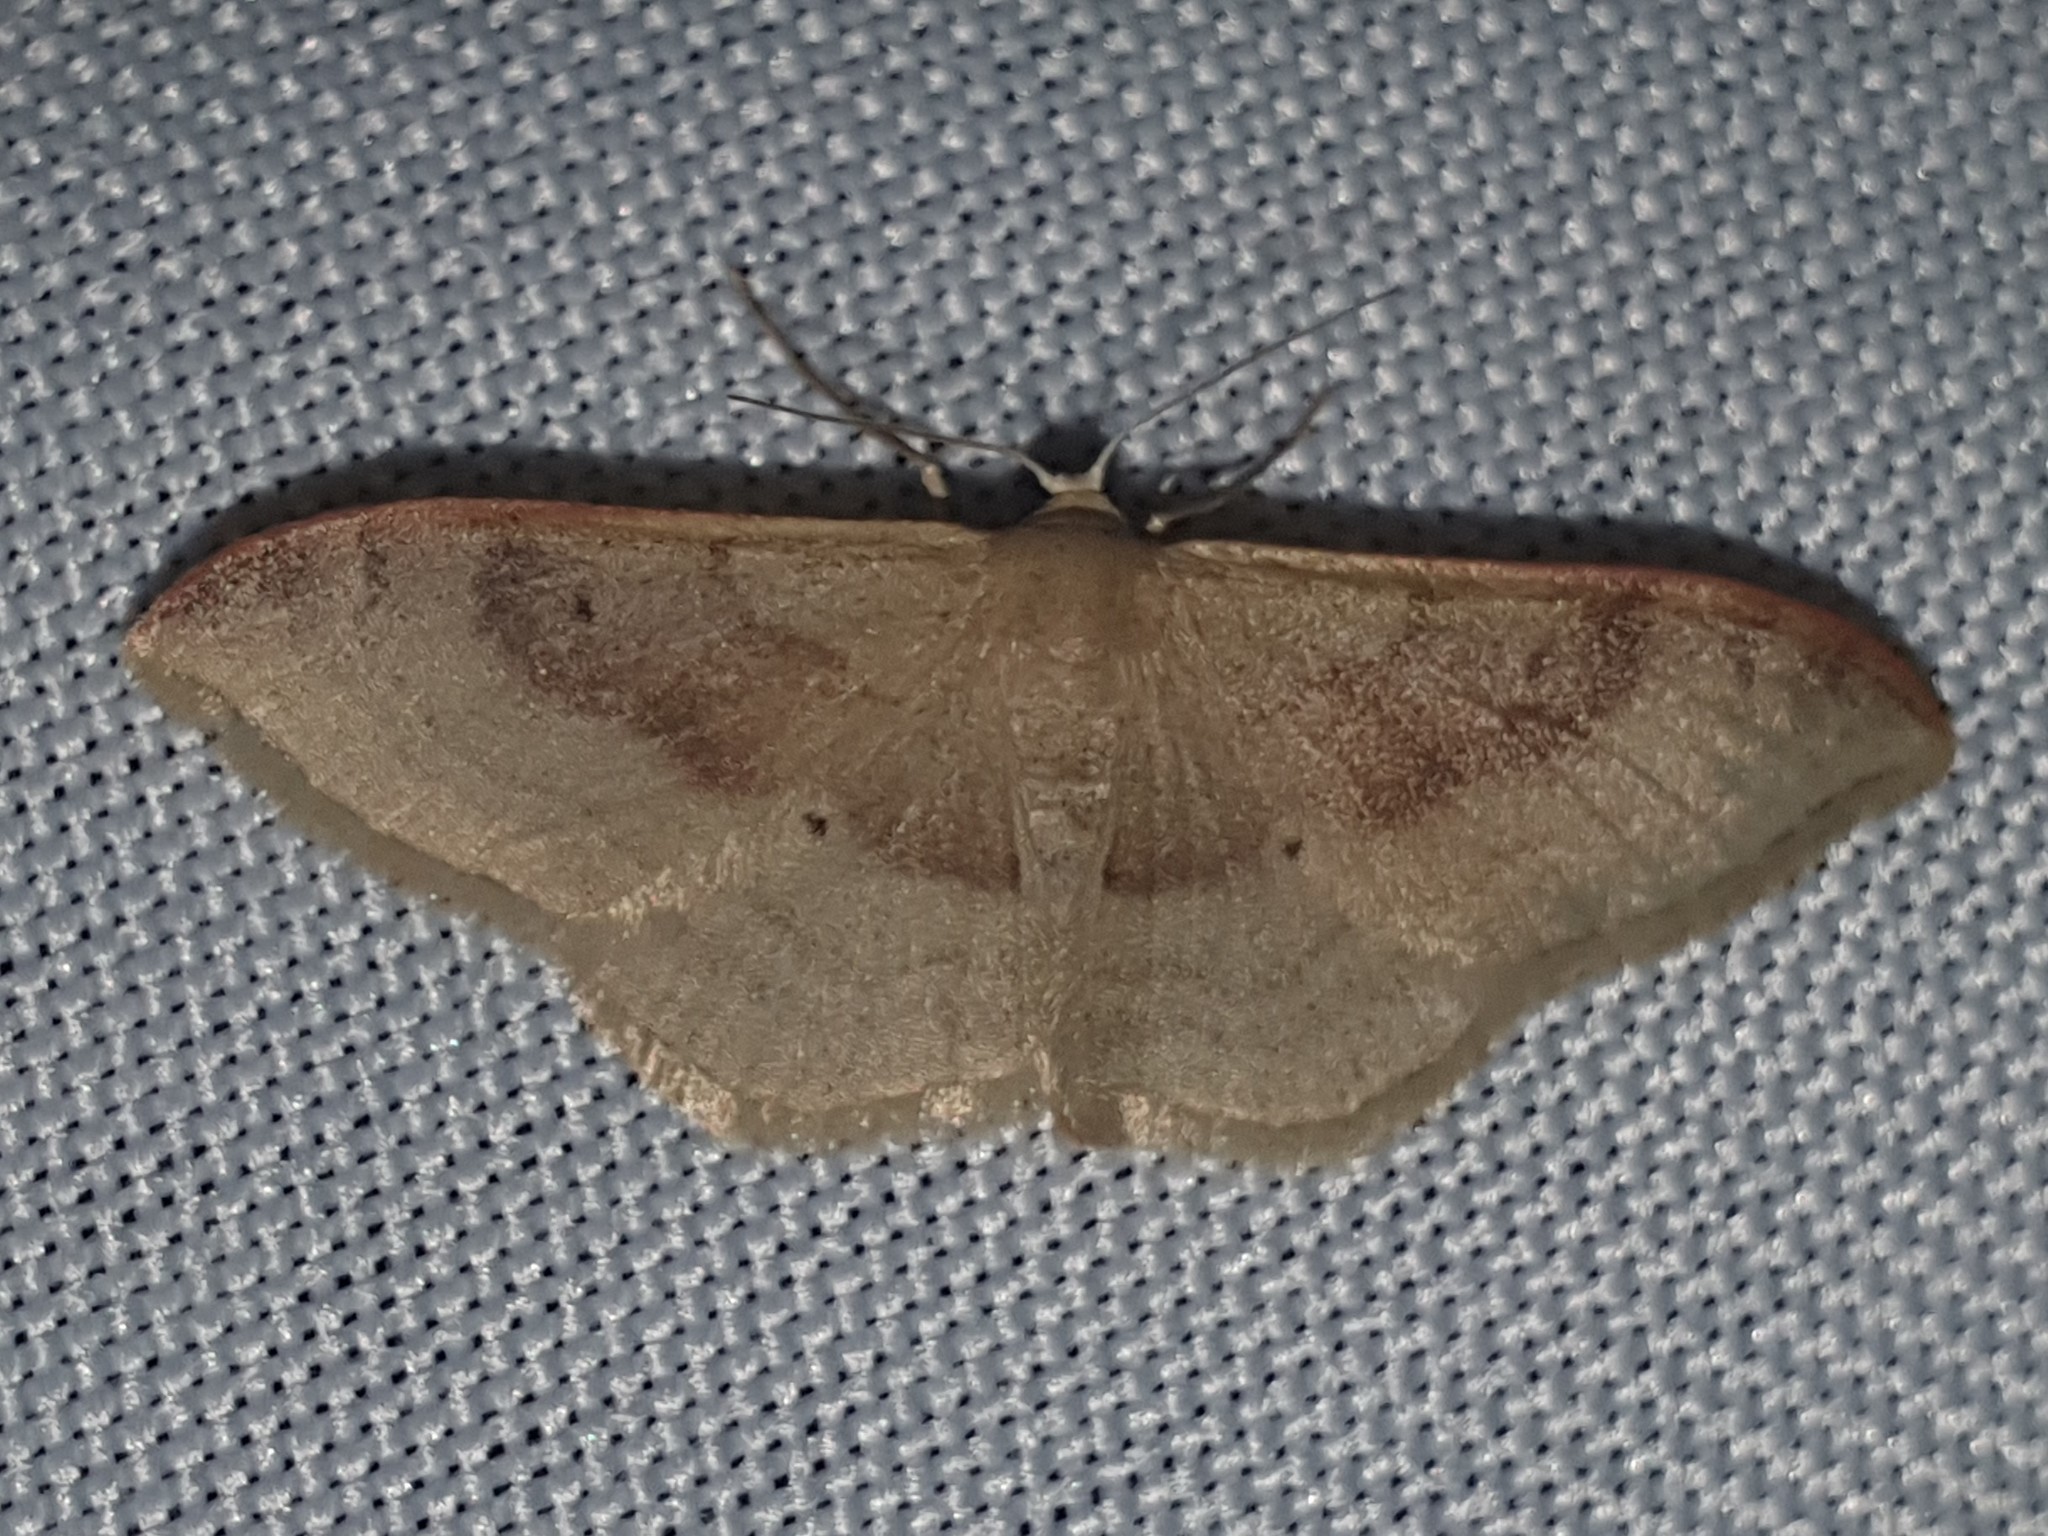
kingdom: Animalia
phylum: Arthropoda
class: Insecta
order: Lepidoptera
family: Geometridae
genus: Idaea
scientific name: Idaea degeneraria
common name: Portland ribbon wave
